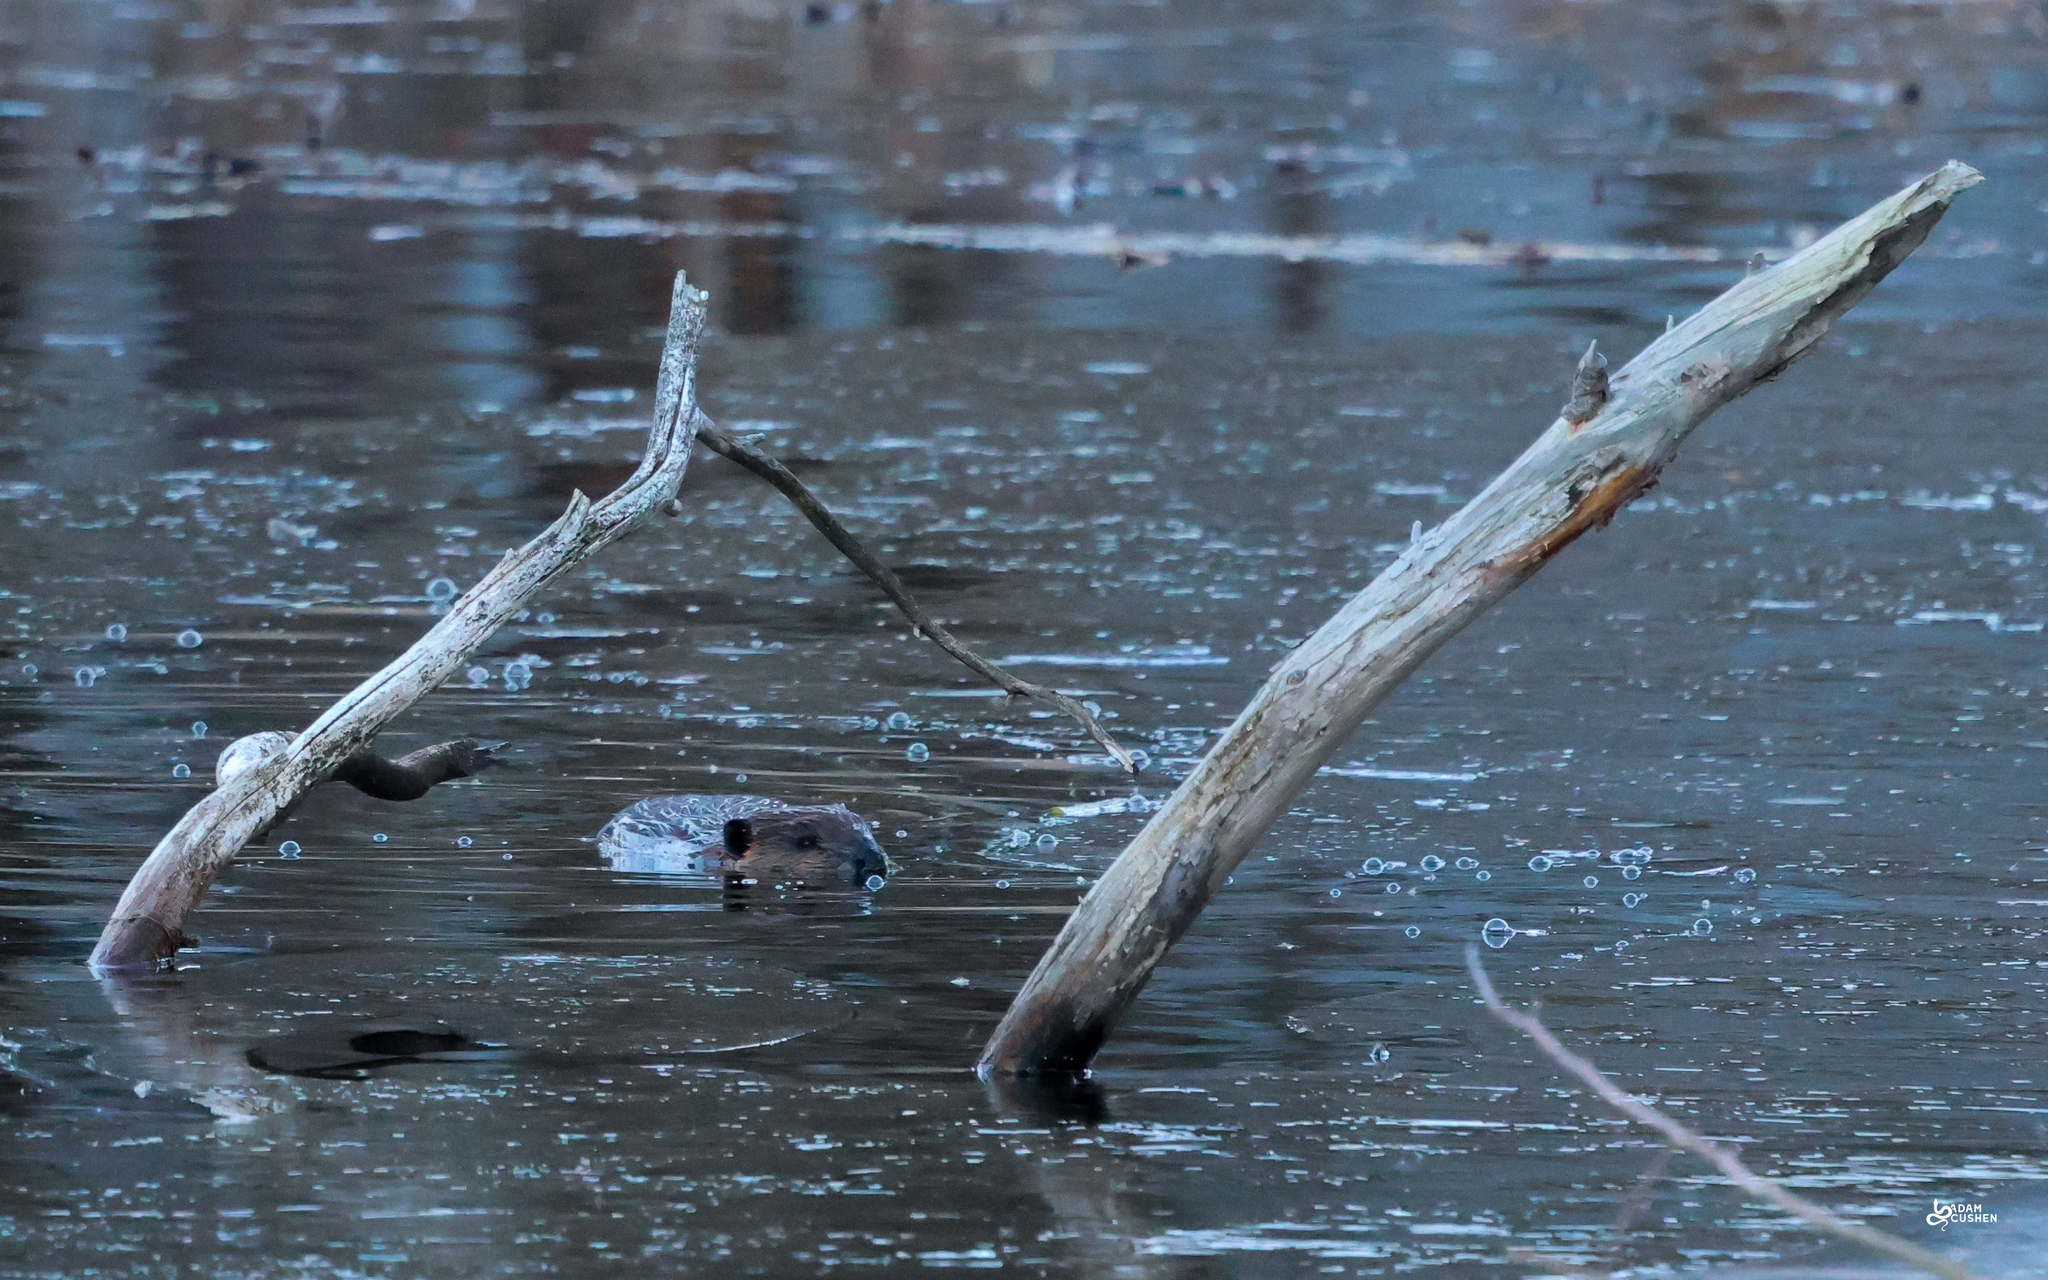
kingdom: Animalia
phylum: Chordata
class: Mammalia
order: Rodentia
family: Castoridae
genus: Castor
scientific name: Castor canadensis
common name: American beaver
